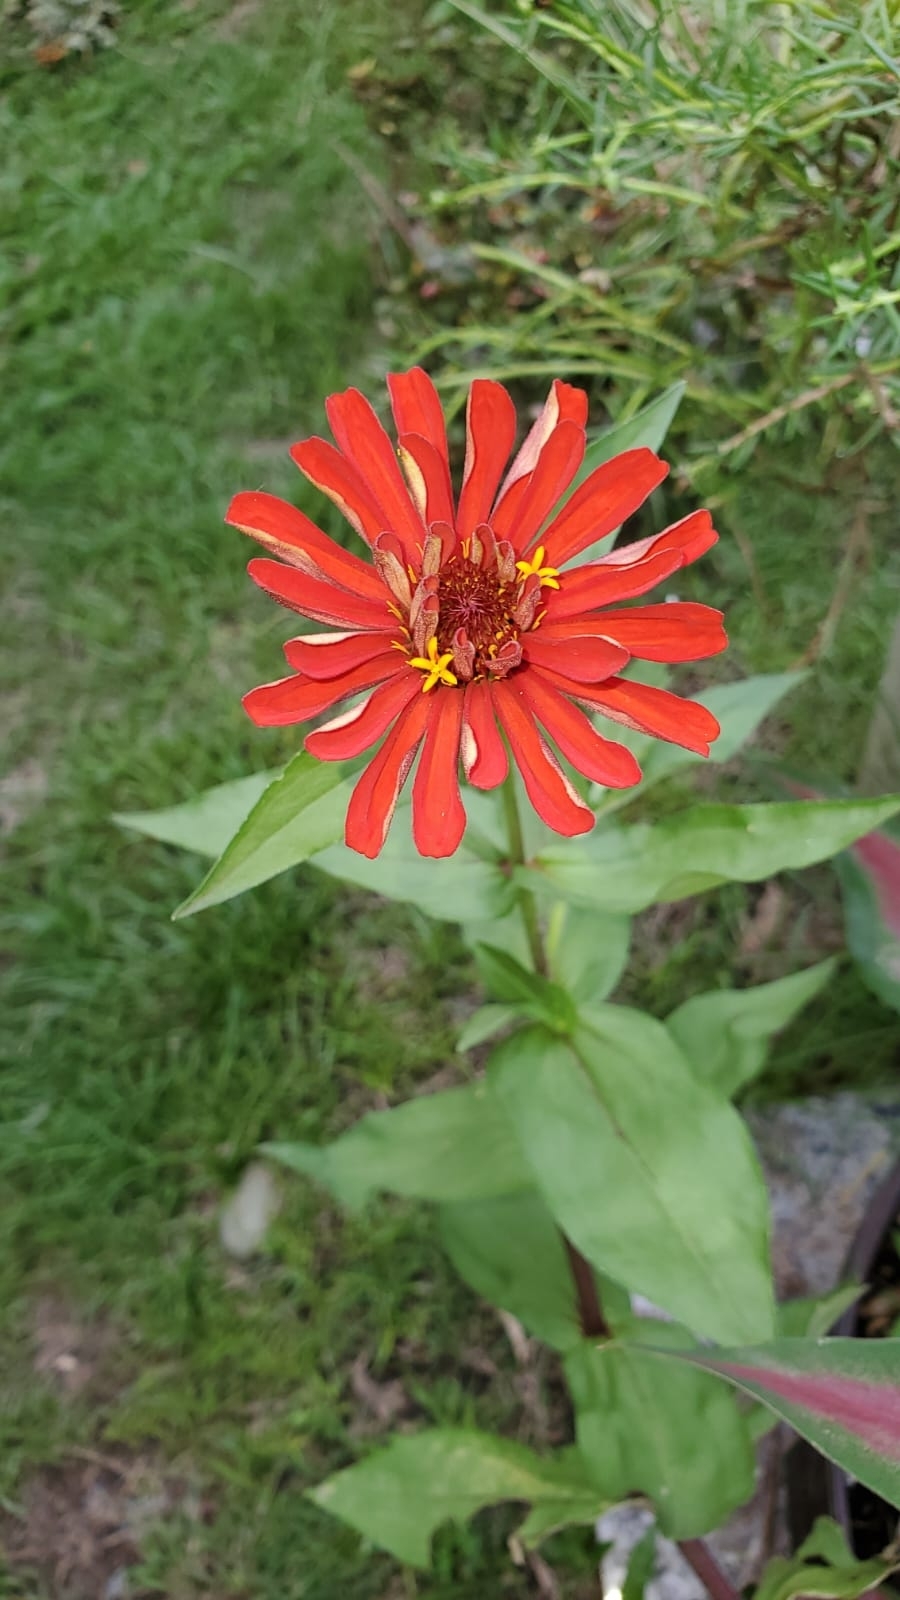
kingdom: Plantae
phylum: Tracheophyta
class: Magnoliopsida
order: Asterales
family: Asteraceae
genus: Zinnia
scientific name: Zinnia elegans
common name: Youth-and-age
